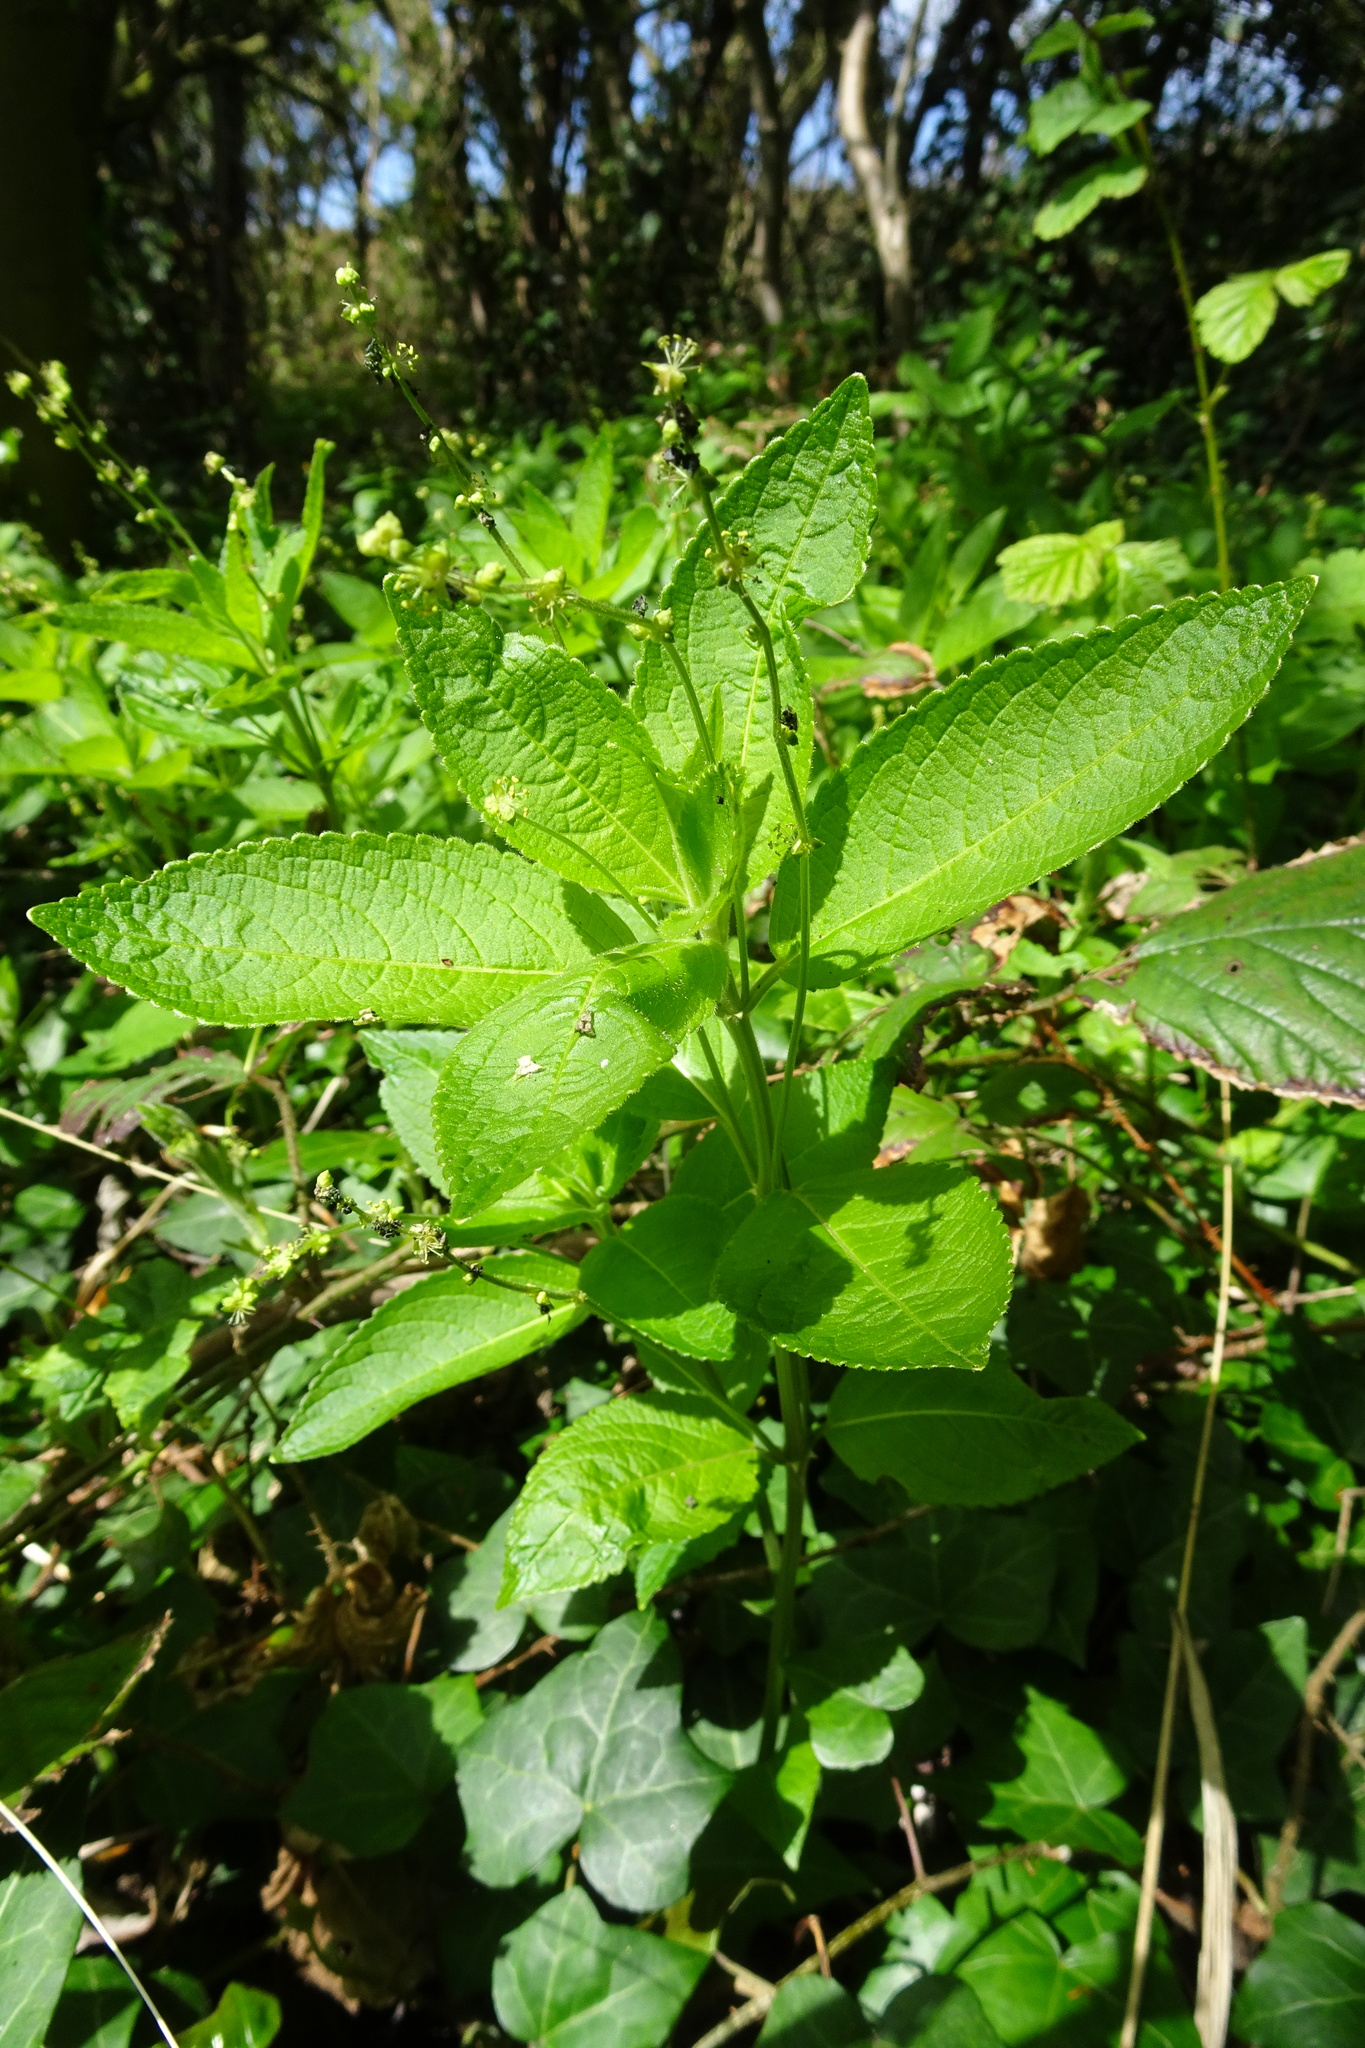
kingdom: Plantae
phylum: Tracheophyta
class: Magnoliopsida
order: Malpighiales
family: Euphorbiaceae
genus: Mercurialis
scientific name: Mercurialis perennis
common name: Dog mercury
